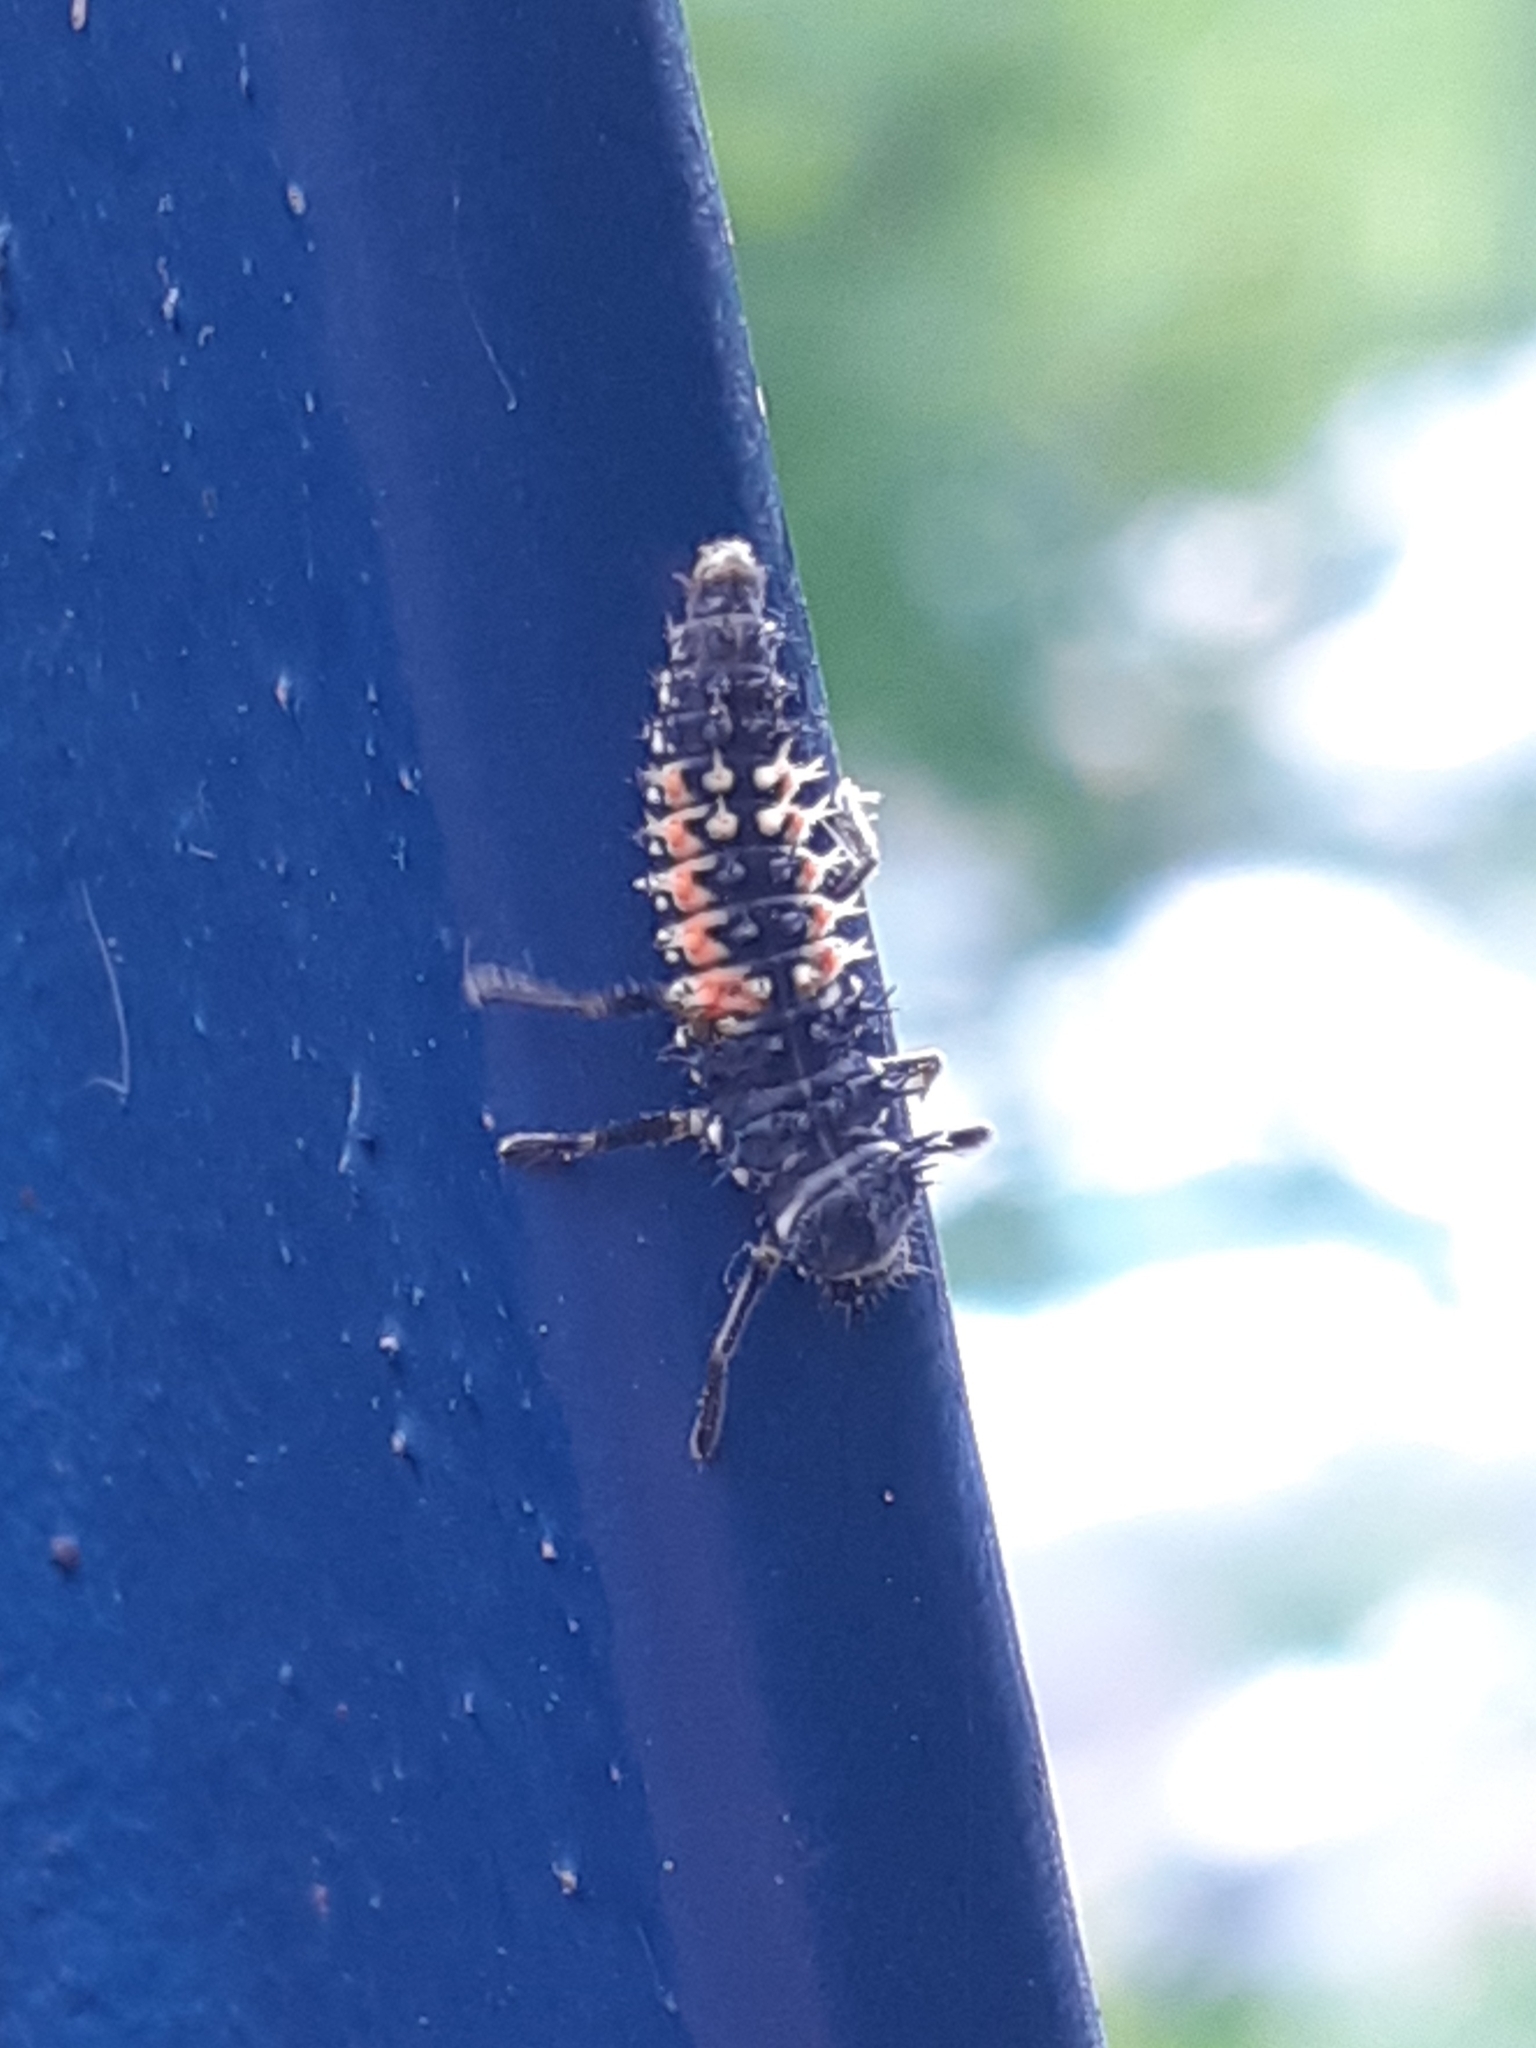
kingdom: Animalia
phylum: Arthropoda
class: Insecta
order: Coleoptera
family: Coccinellidae
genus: Harmonia
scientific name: Harmonia axyridis
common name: Harlequin ladybird
